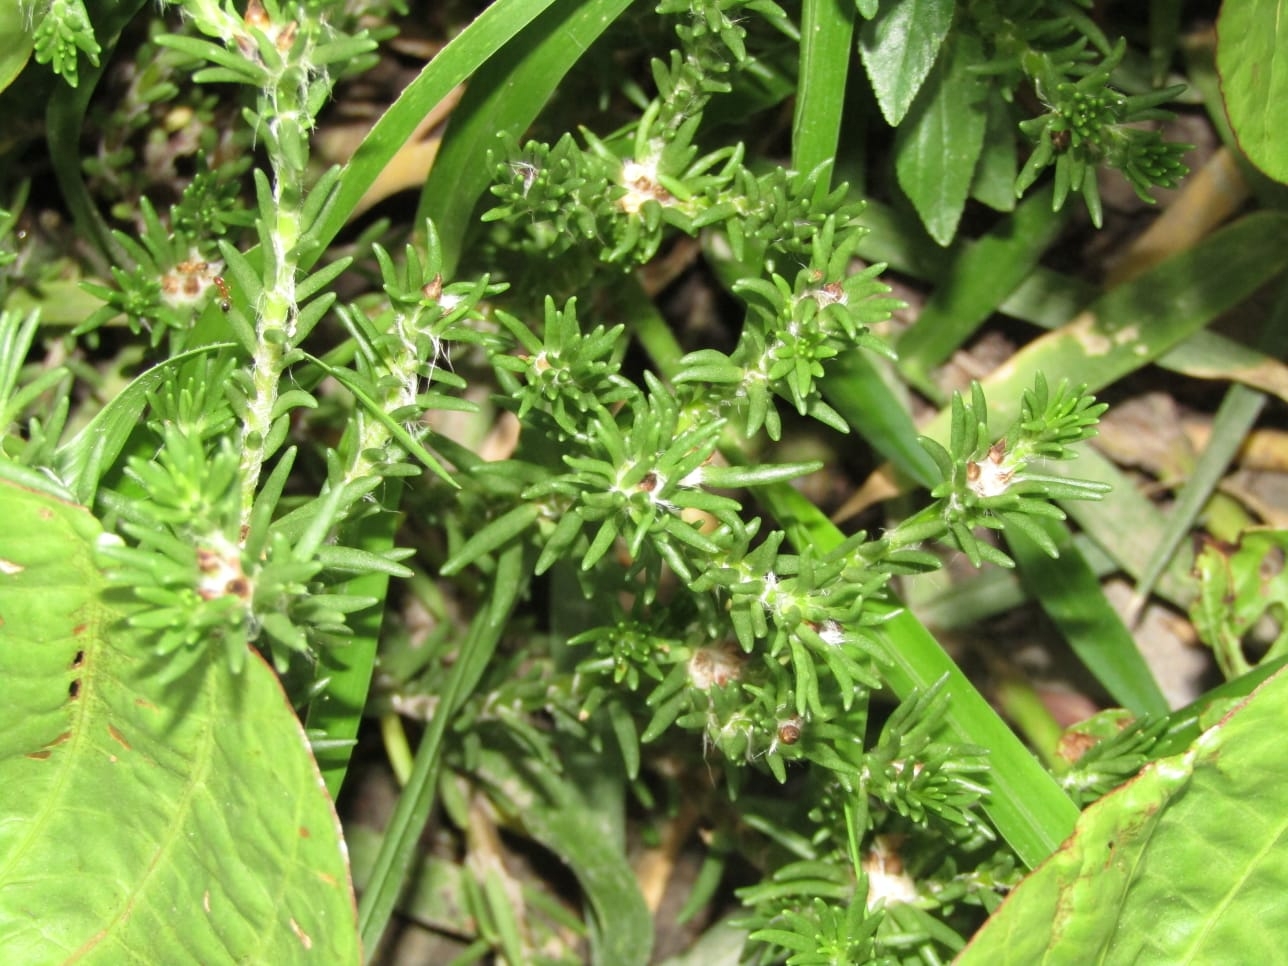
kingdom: Plantae
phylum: Tracheophyta
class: Magnoliopsida
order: Caryophyllales
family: Portulacaceae
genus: Portulaca
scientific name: Portulaca halimoides
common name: Silk cotton purslane
